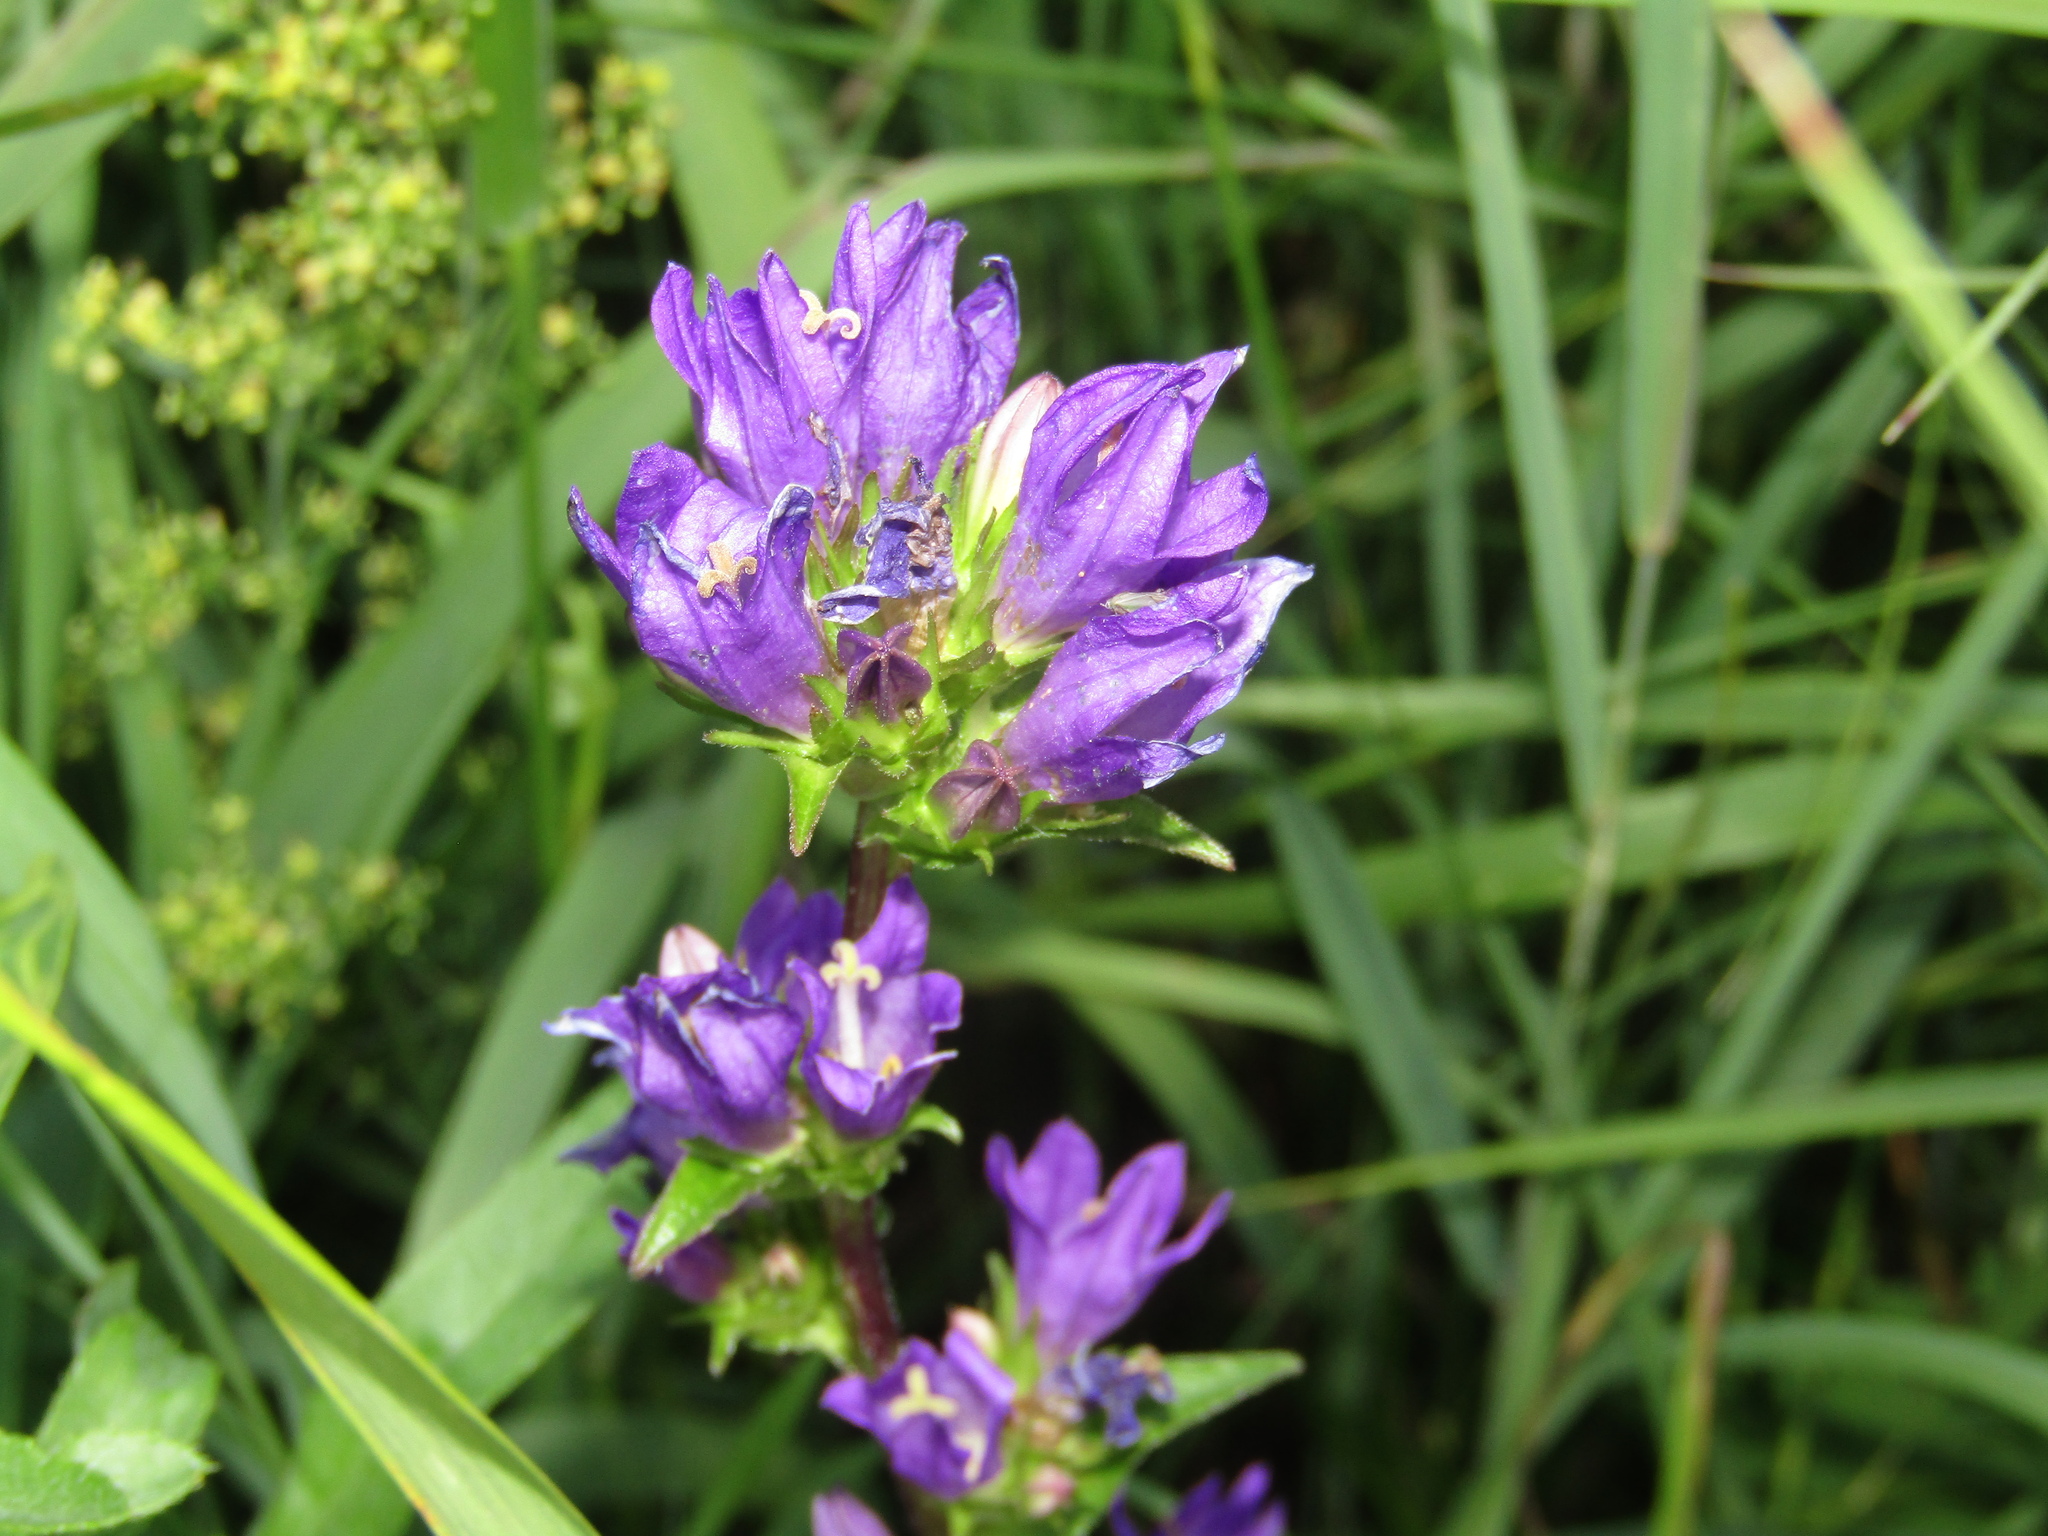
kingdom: Plantae
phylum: Tracheophyta
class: Magnoliopsida
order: Asterales
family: Campanulaceae
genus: Campanula
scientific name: Campanula glomerata
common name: Clustered bellflower
